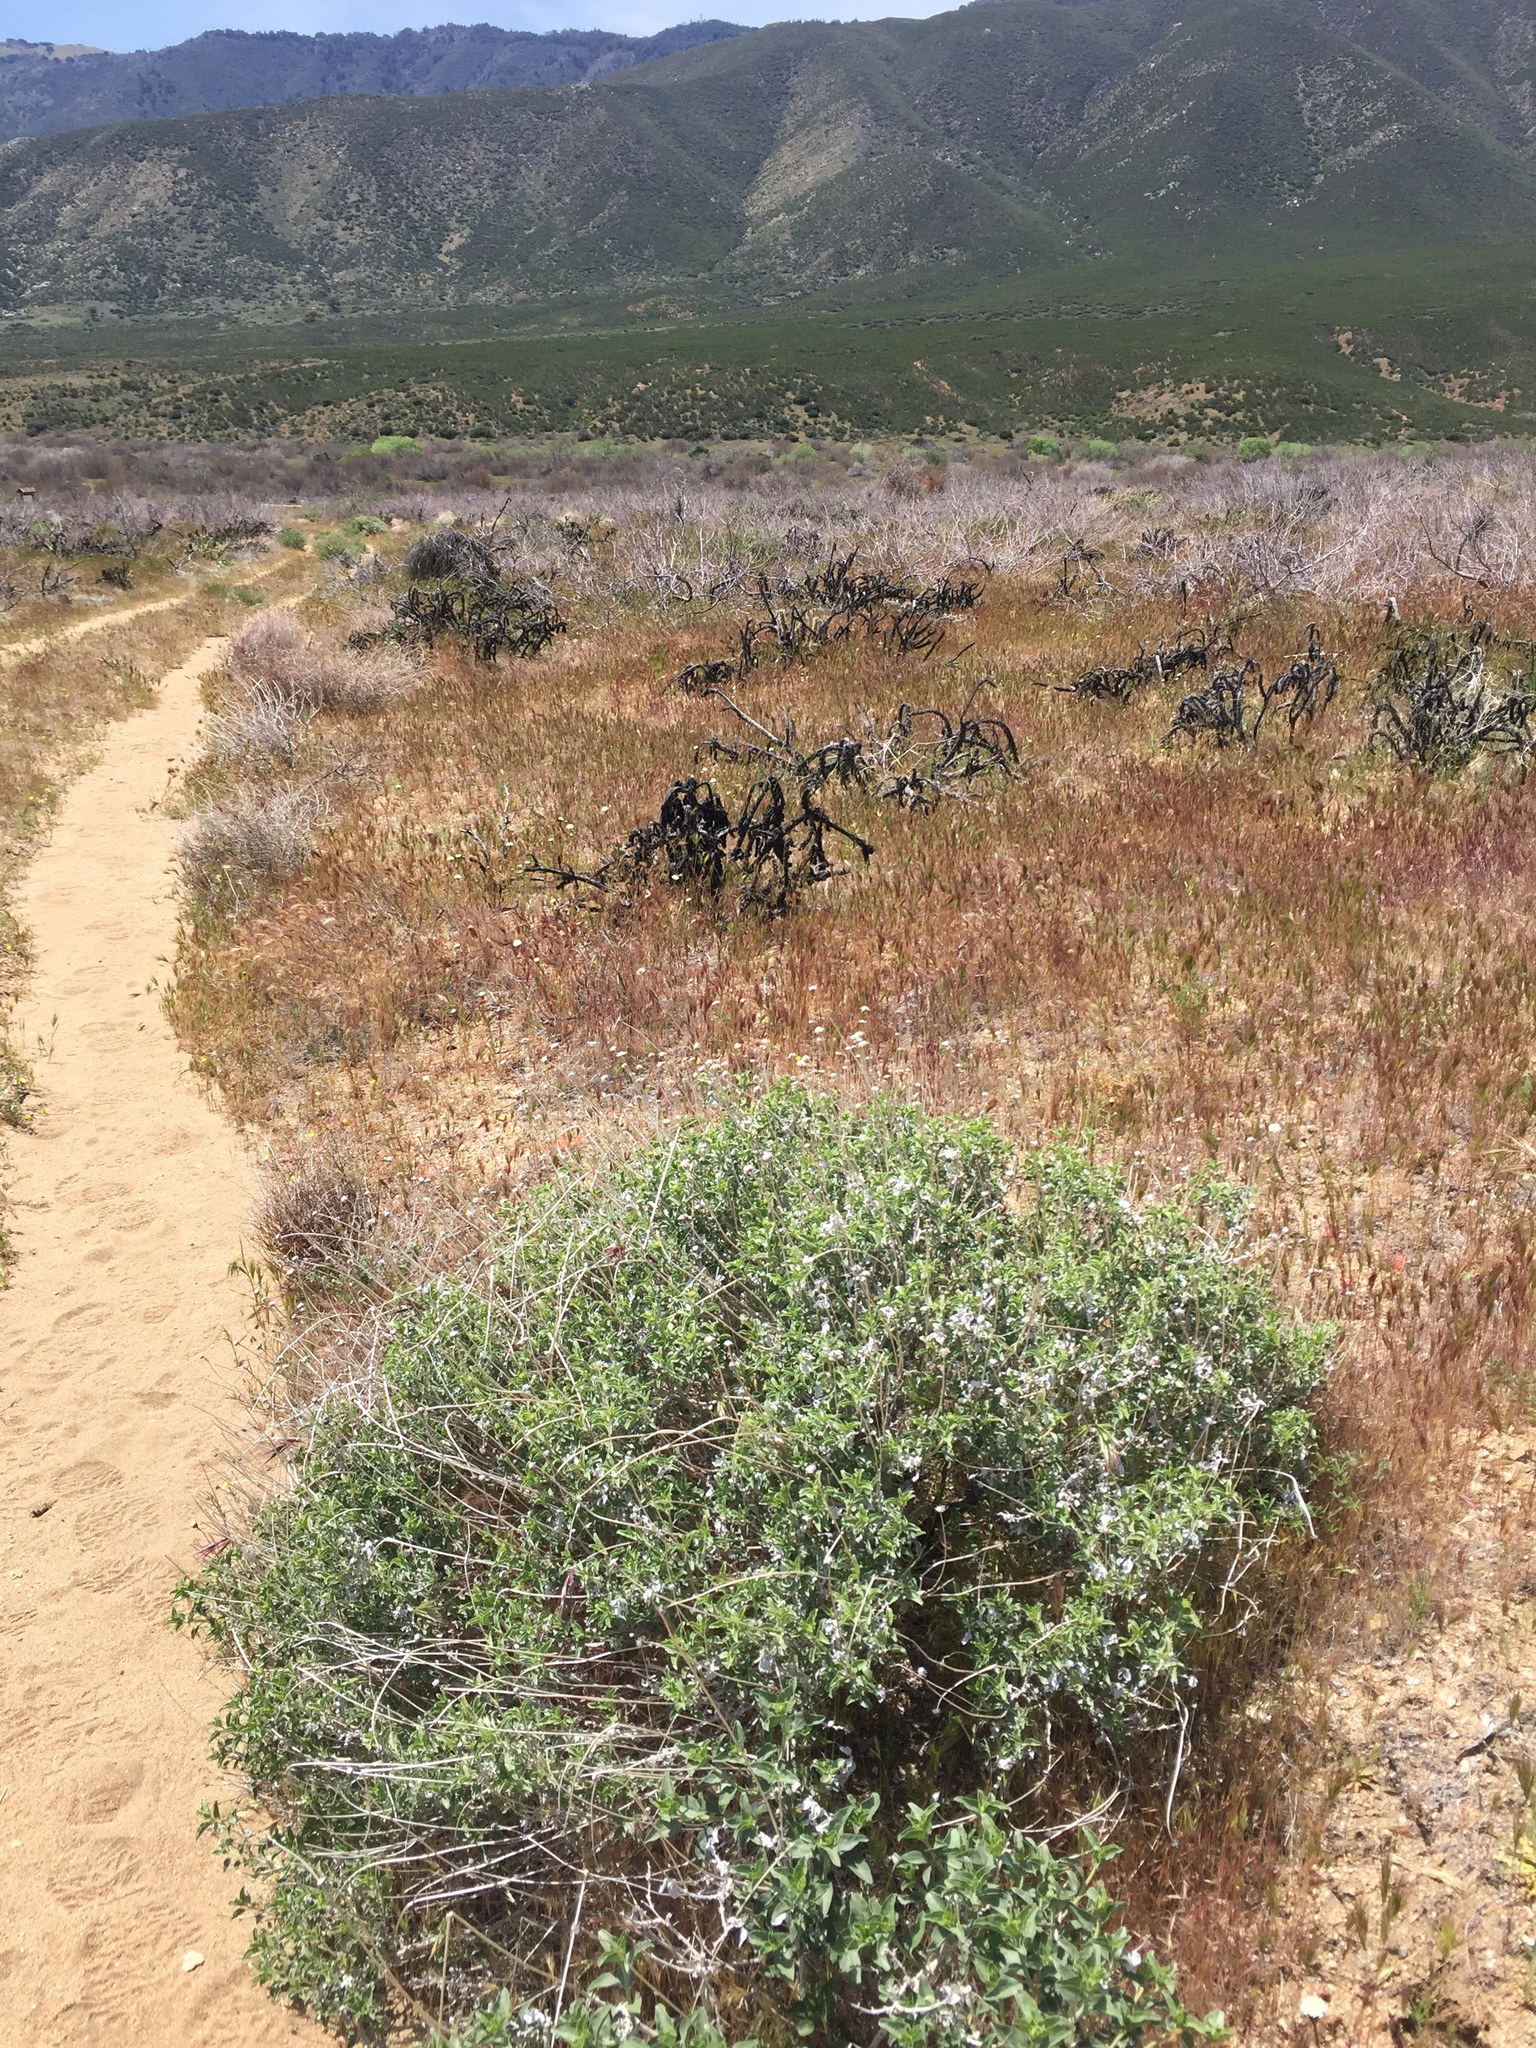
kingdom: Plantae
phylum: Tracheophyta
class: Magnoliopsida
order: Asterales
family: Asteraceae
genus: Encelia
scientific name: Encelia actoni
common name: Acton encelia
